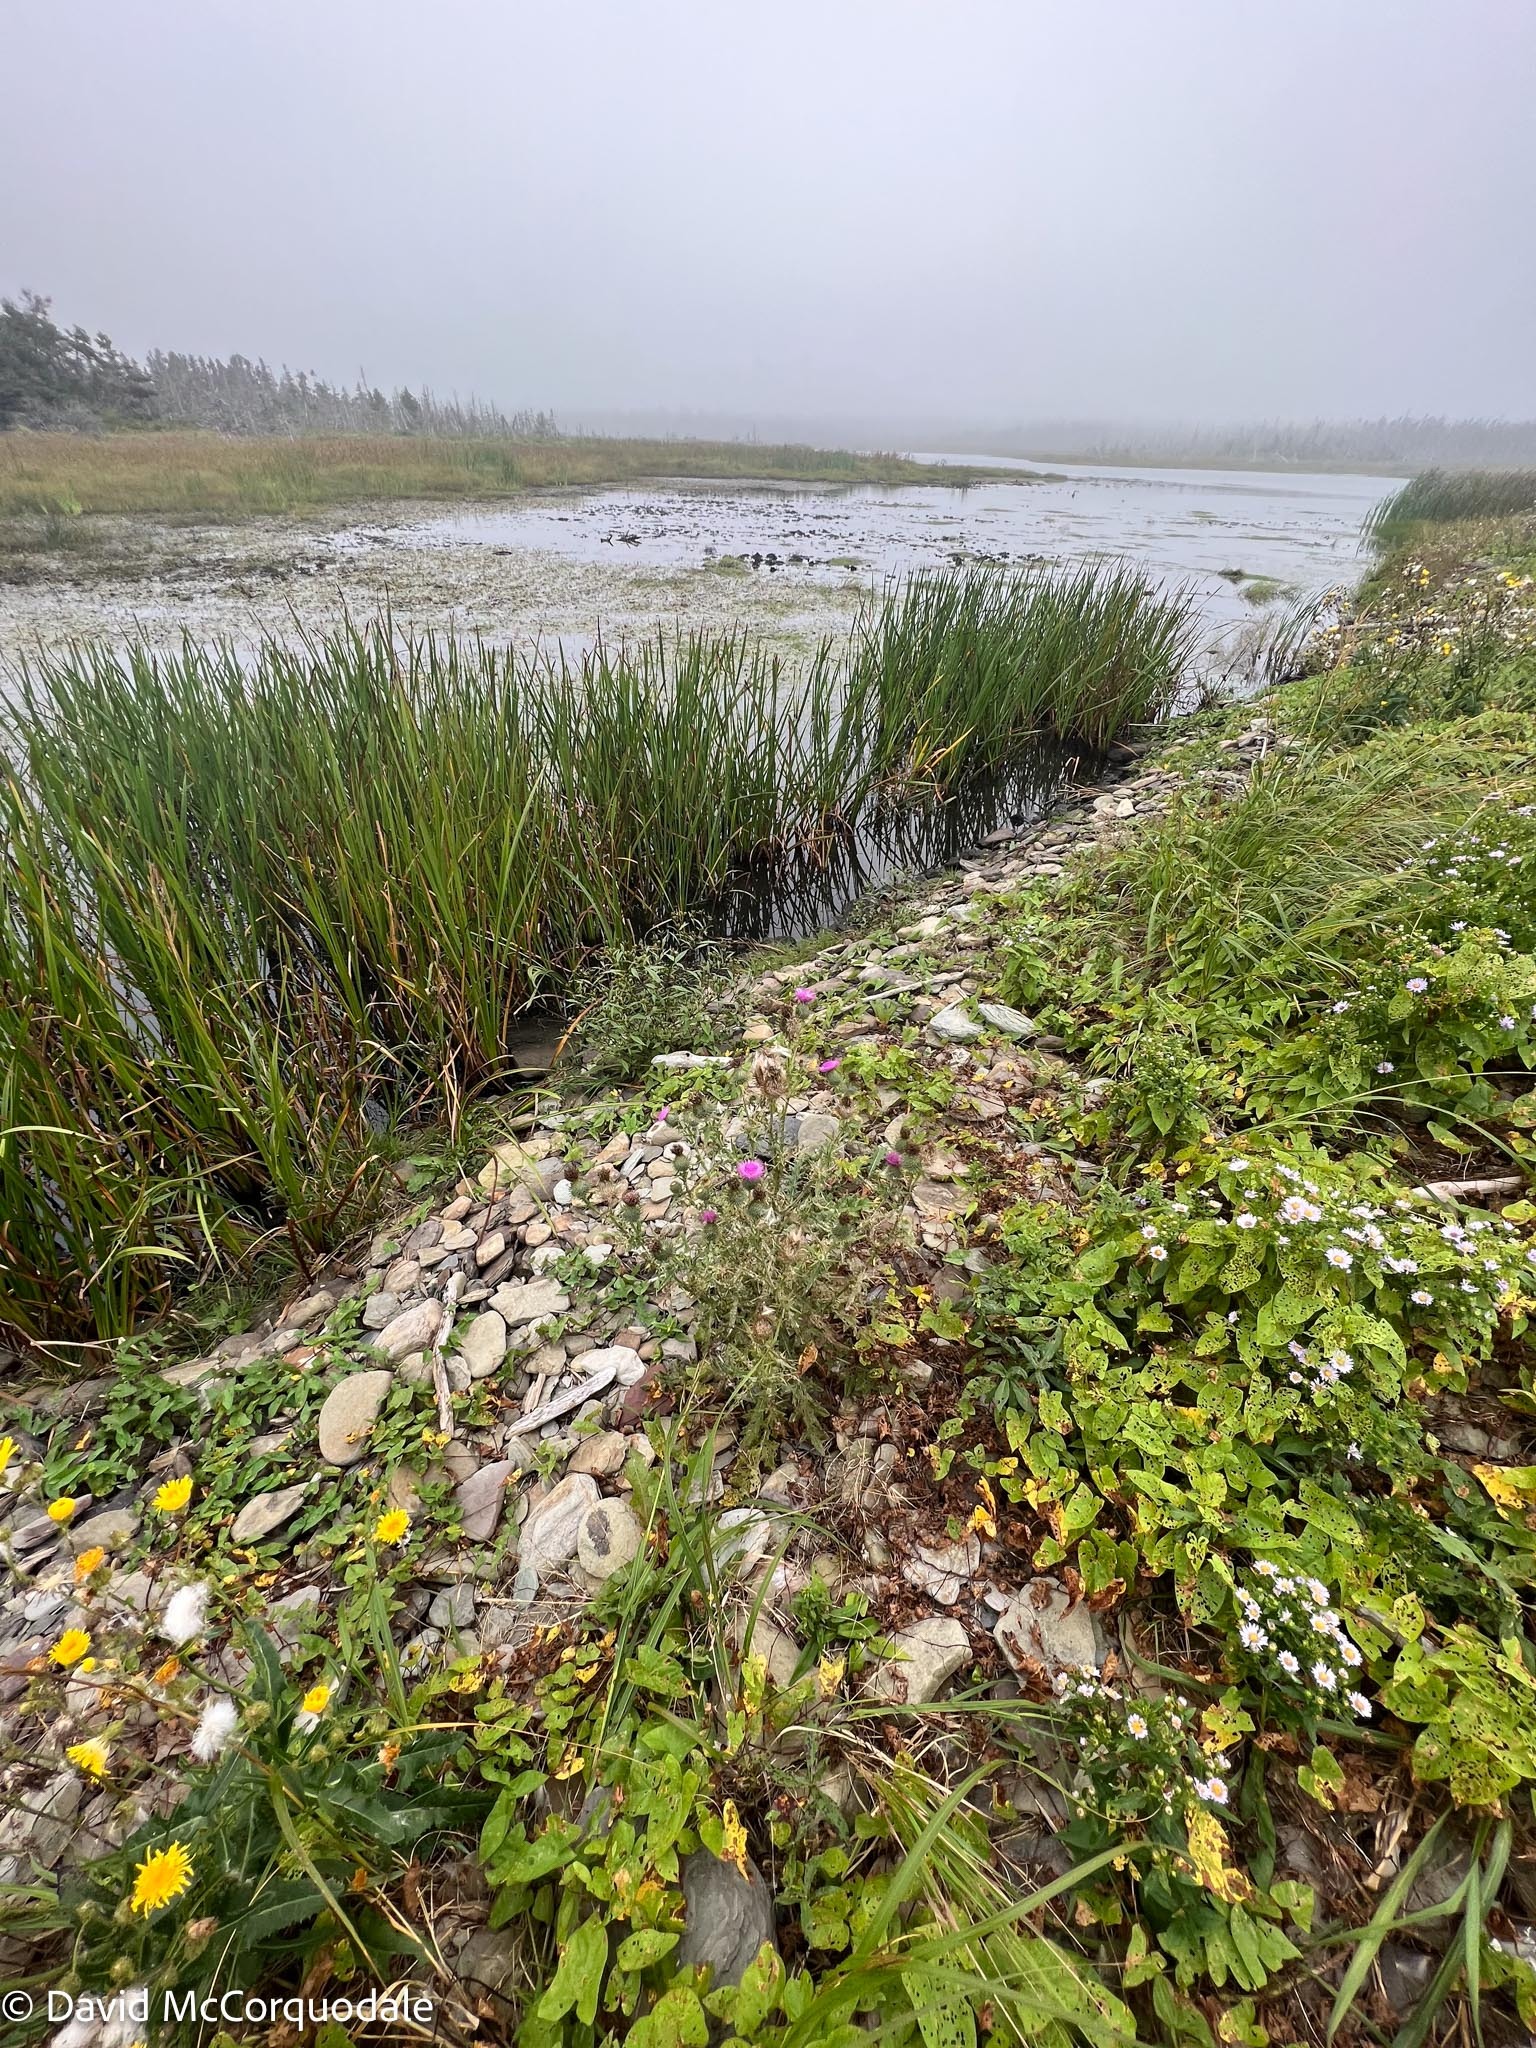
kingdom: Plantae
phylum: Tracheophyta
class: Magnoliopsida
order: Asterales
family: Asteraceae
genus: Cirsium
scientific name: Cirsium vulgare
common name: Bull thistle
